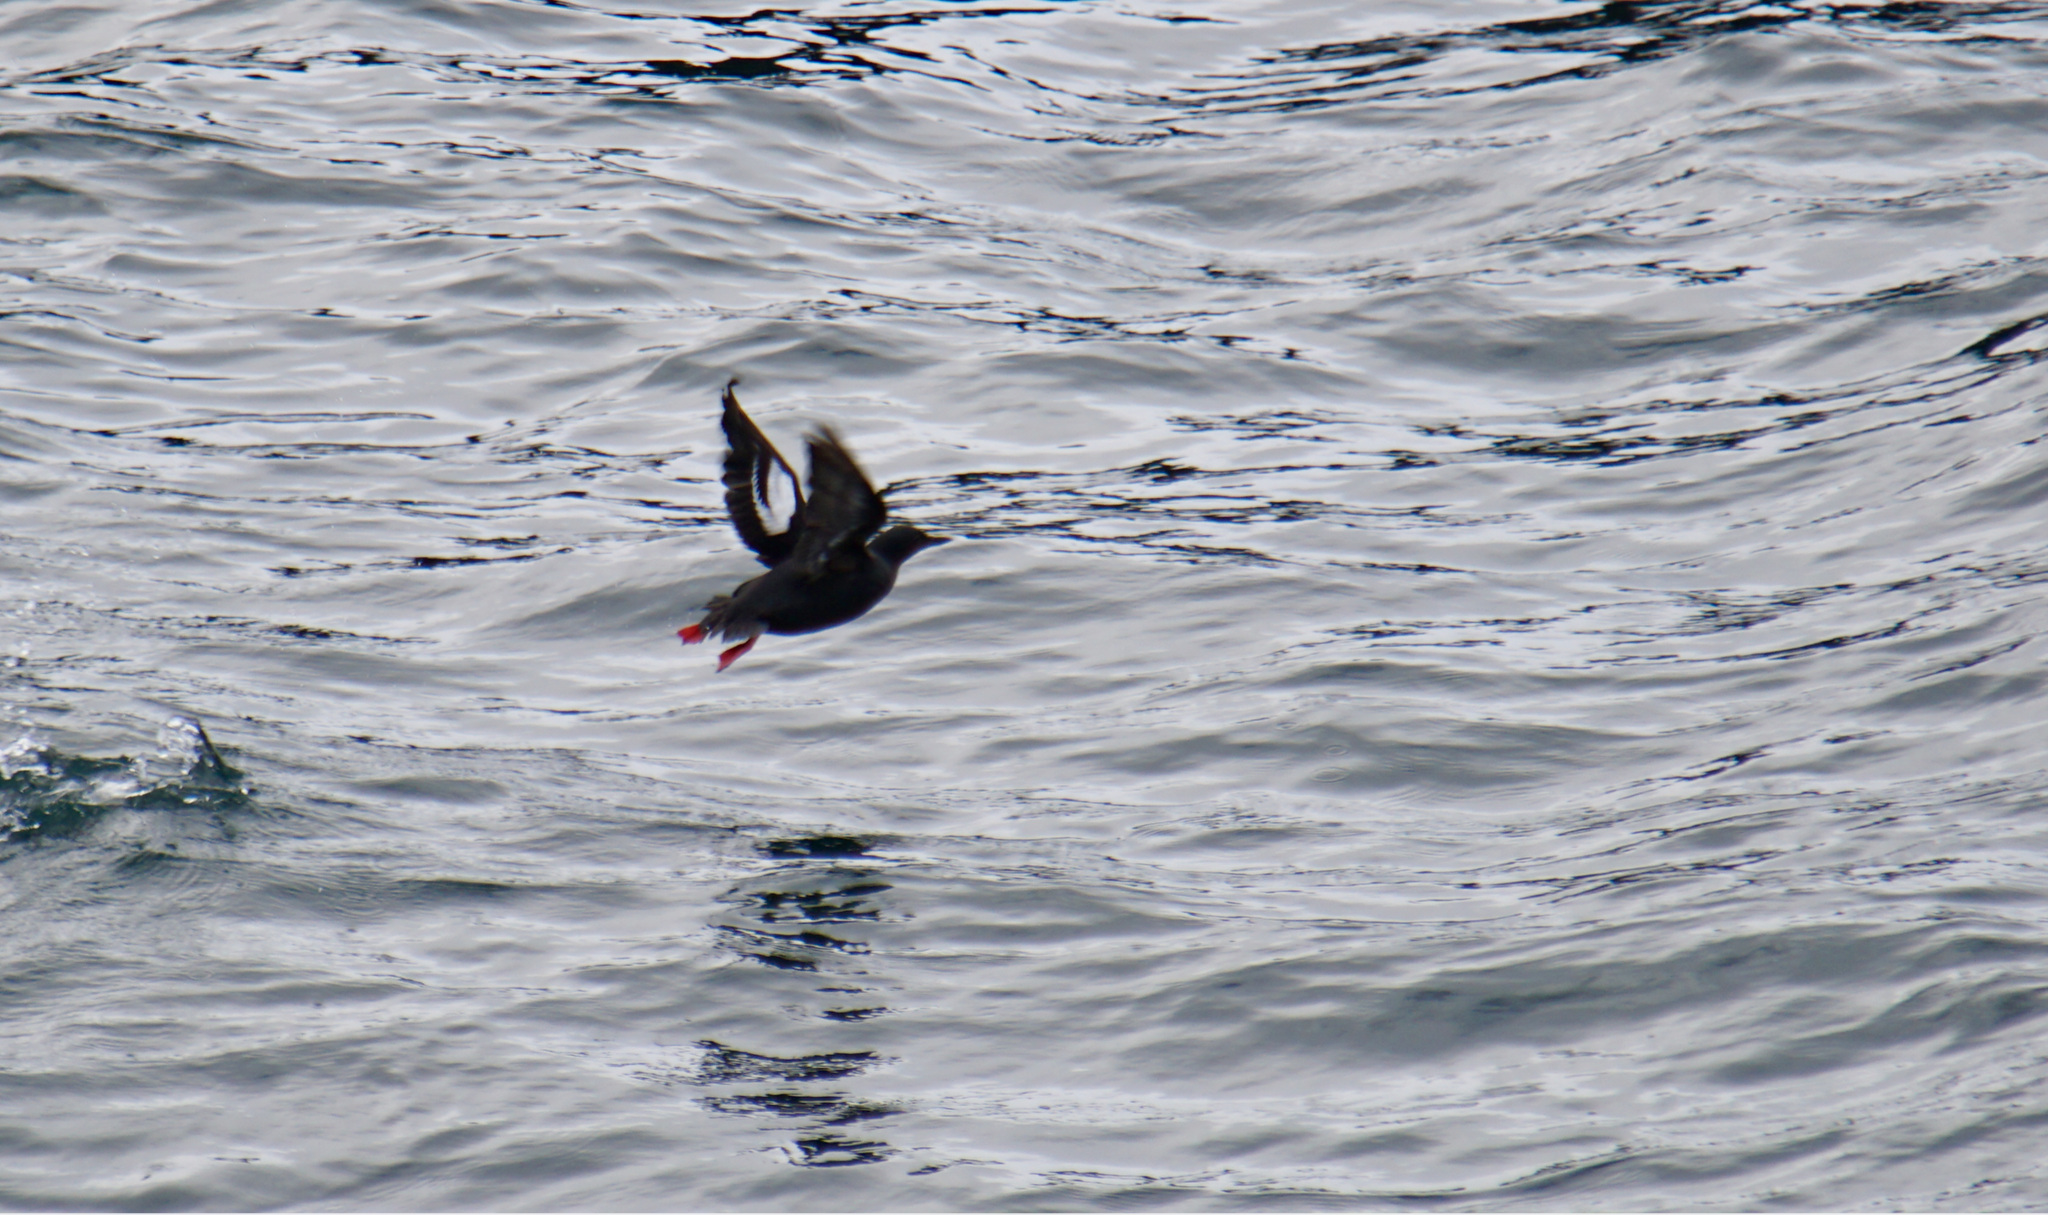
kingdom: Animalia
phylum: Chordata
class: Aves
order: Charadriiformes
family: Alcidae
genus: Cepphus
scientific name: Cepphus columba
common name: Pigeon guillemot
